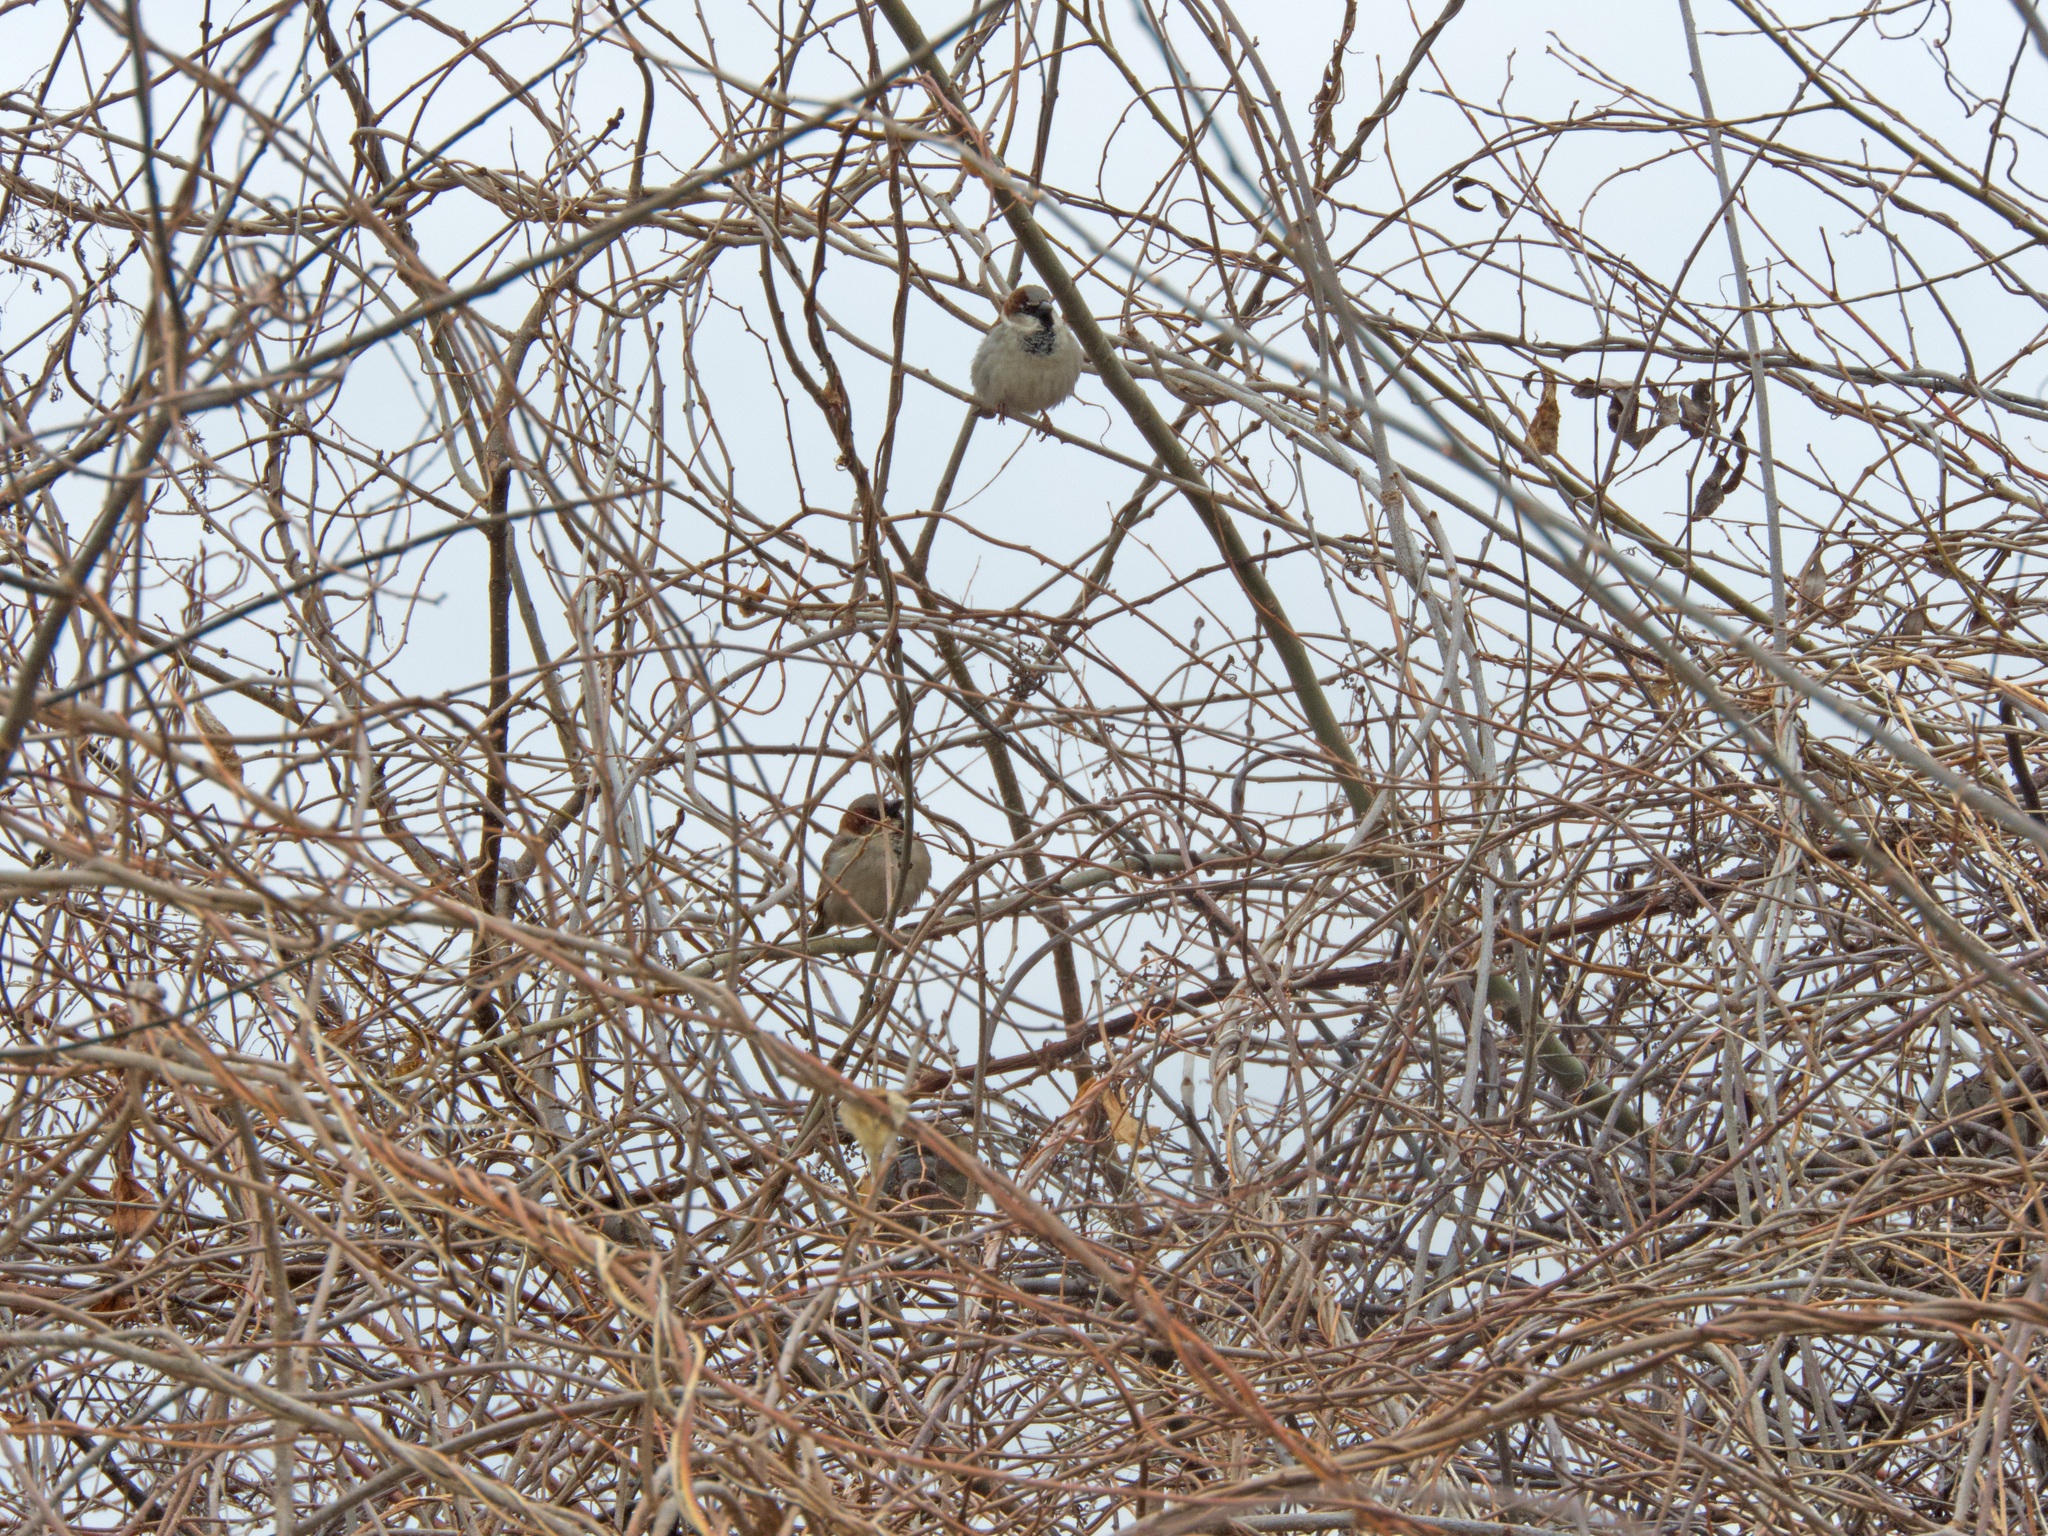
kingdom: Animalia
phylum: Chordata
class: Aves
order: Passeriformes
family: Passeridae
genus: Passer
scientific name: Passer domesticus
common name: House sparrow
